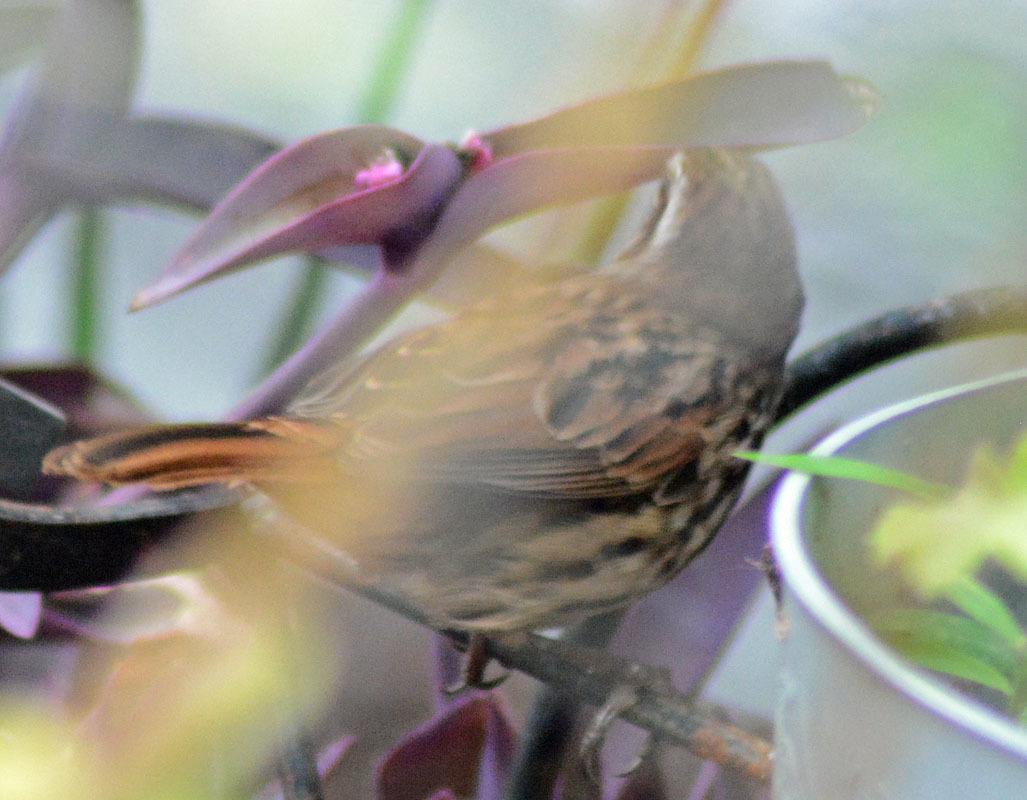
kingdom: Animalia
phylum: Chordata
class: Aves
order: Passeriformes
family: Passerellidae
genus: Melospiza
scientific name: Melospiza melodia
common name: Song sparrow
